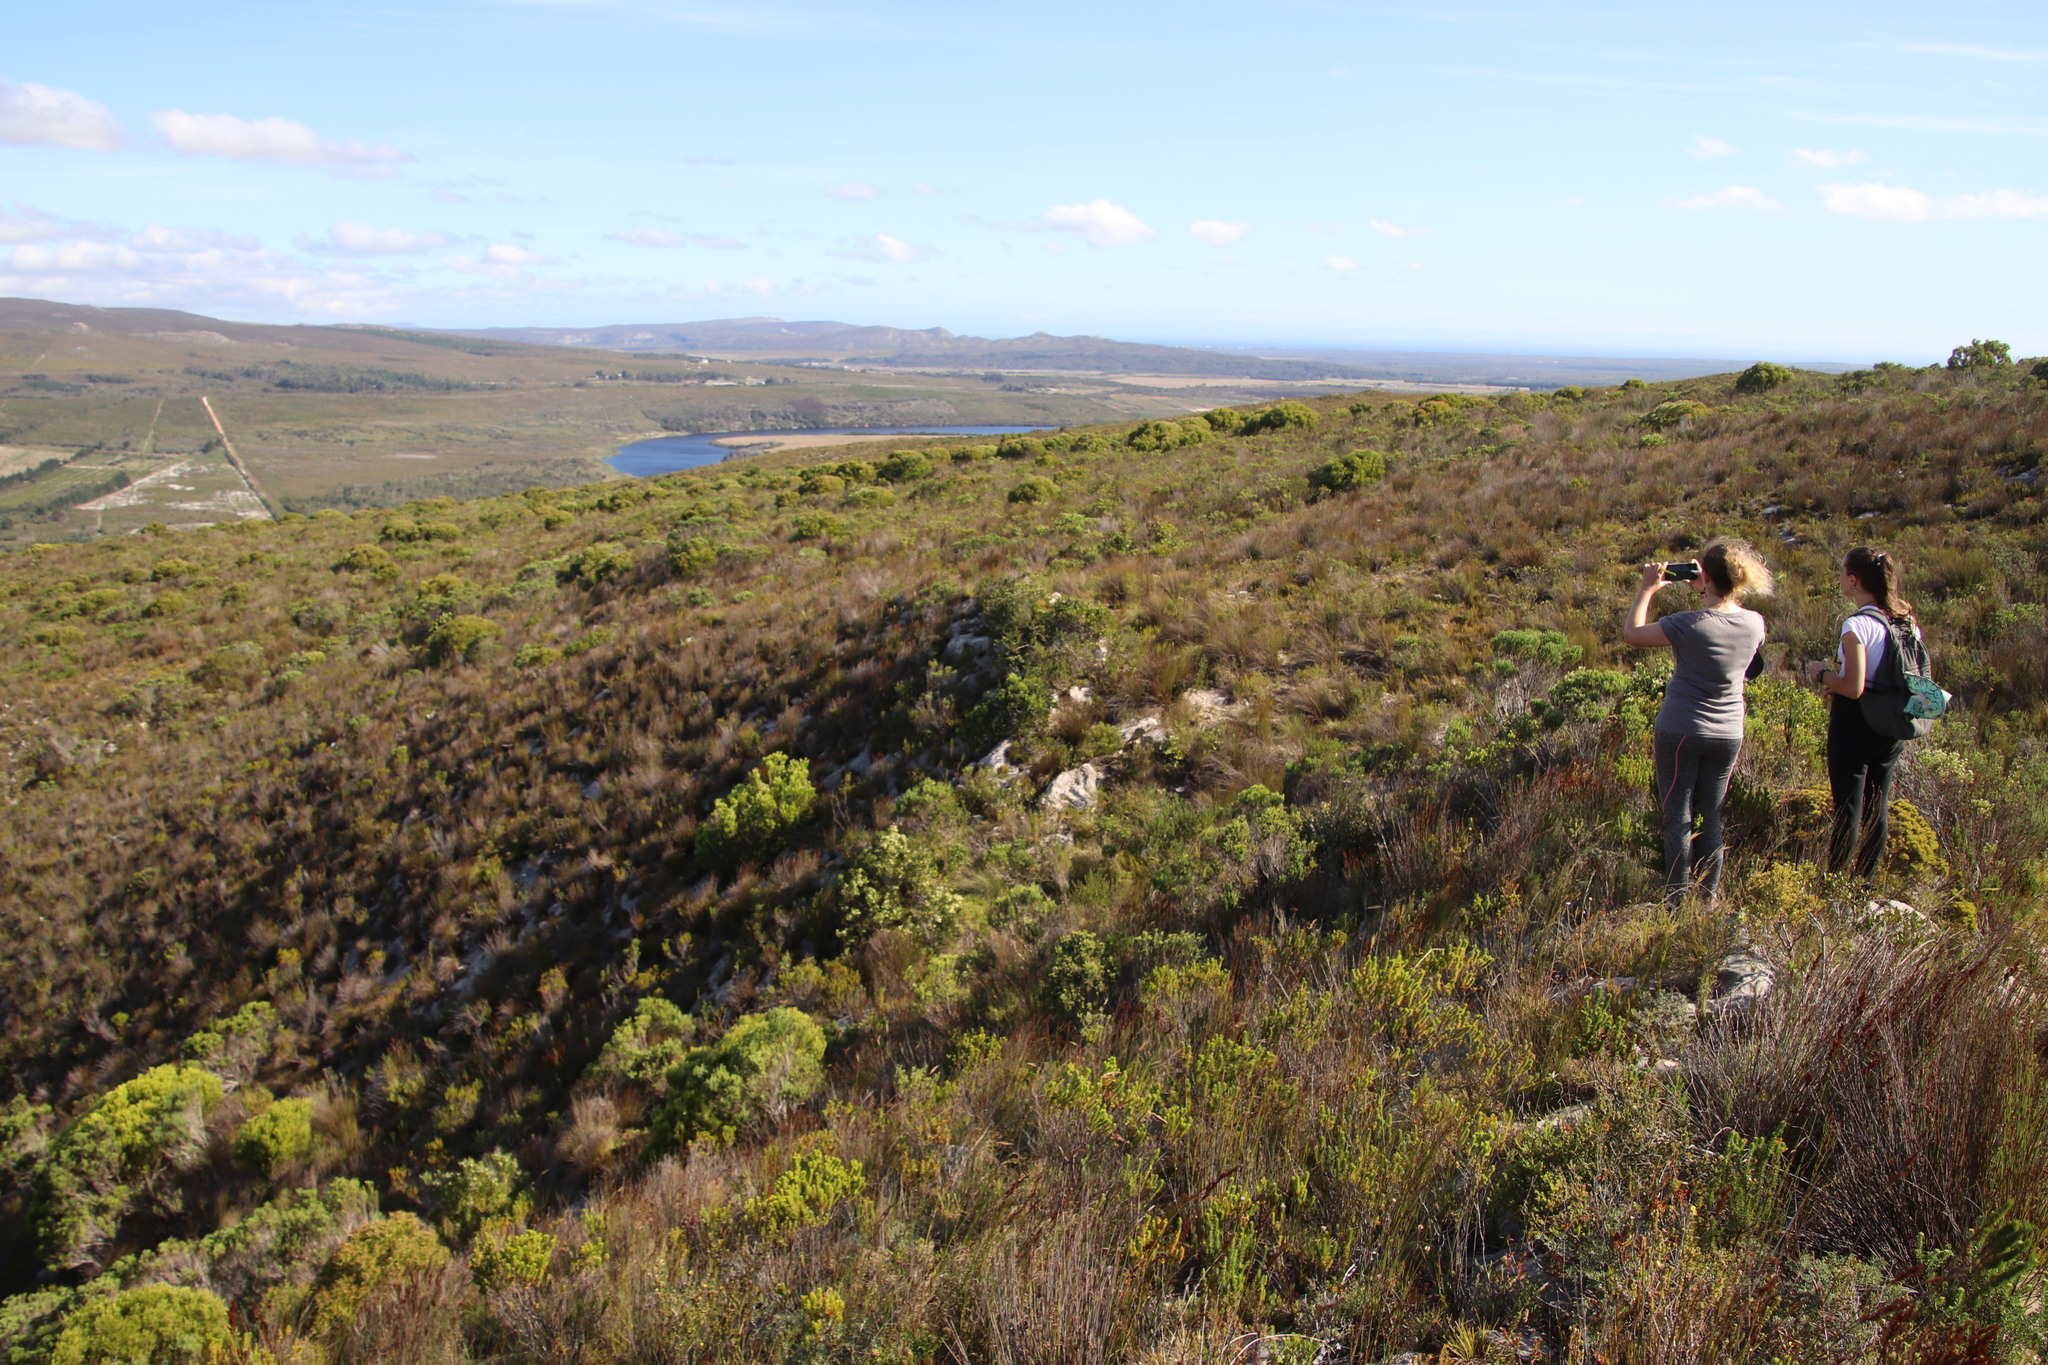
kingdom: Plantae
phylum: Tracheophyta
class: Magnoliopsida
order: Proteales
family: Proteaceae
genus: Leucadendron
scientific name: Leucadendron coniferum
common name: Dune conebush
